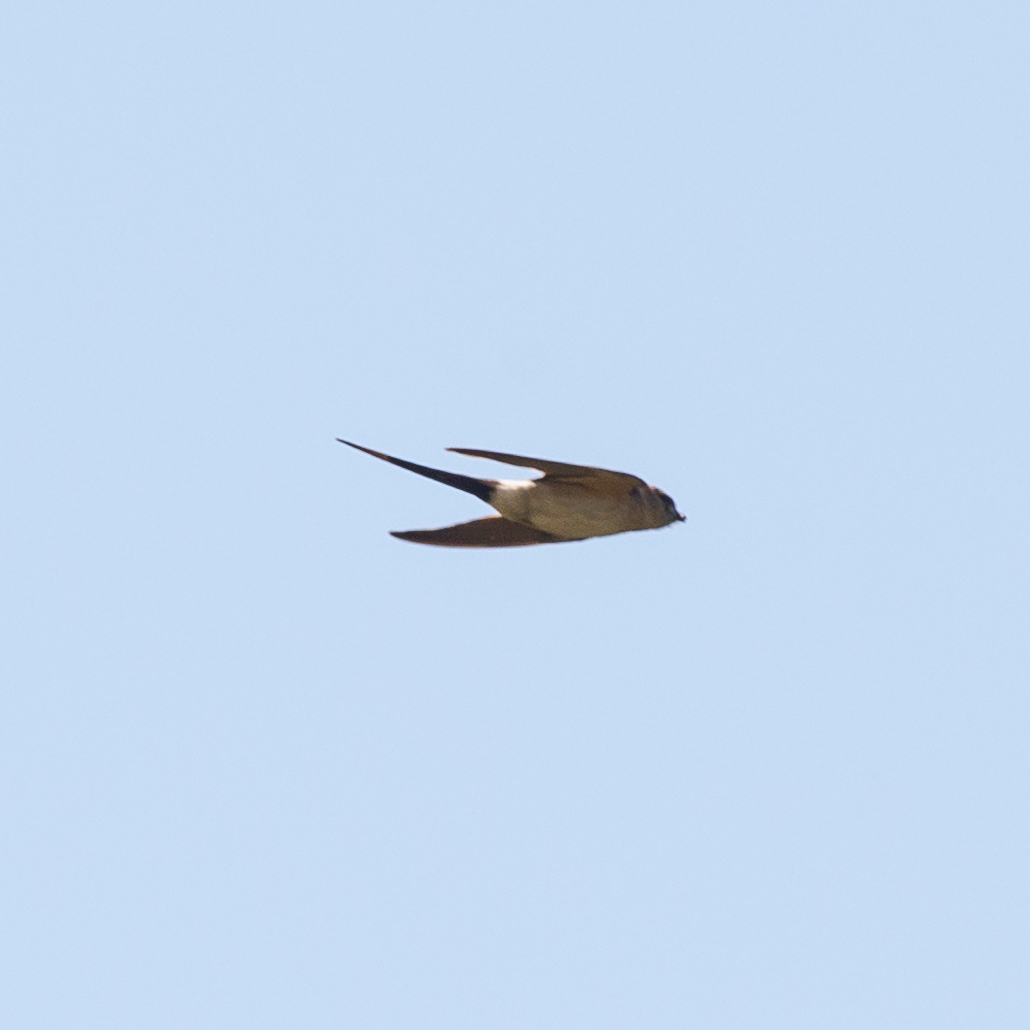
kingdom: Animalia
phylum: Chordata
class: Aves
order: Passeriformes
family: Hirundinidae
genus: Cecropis
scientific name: Cecropis daurica
